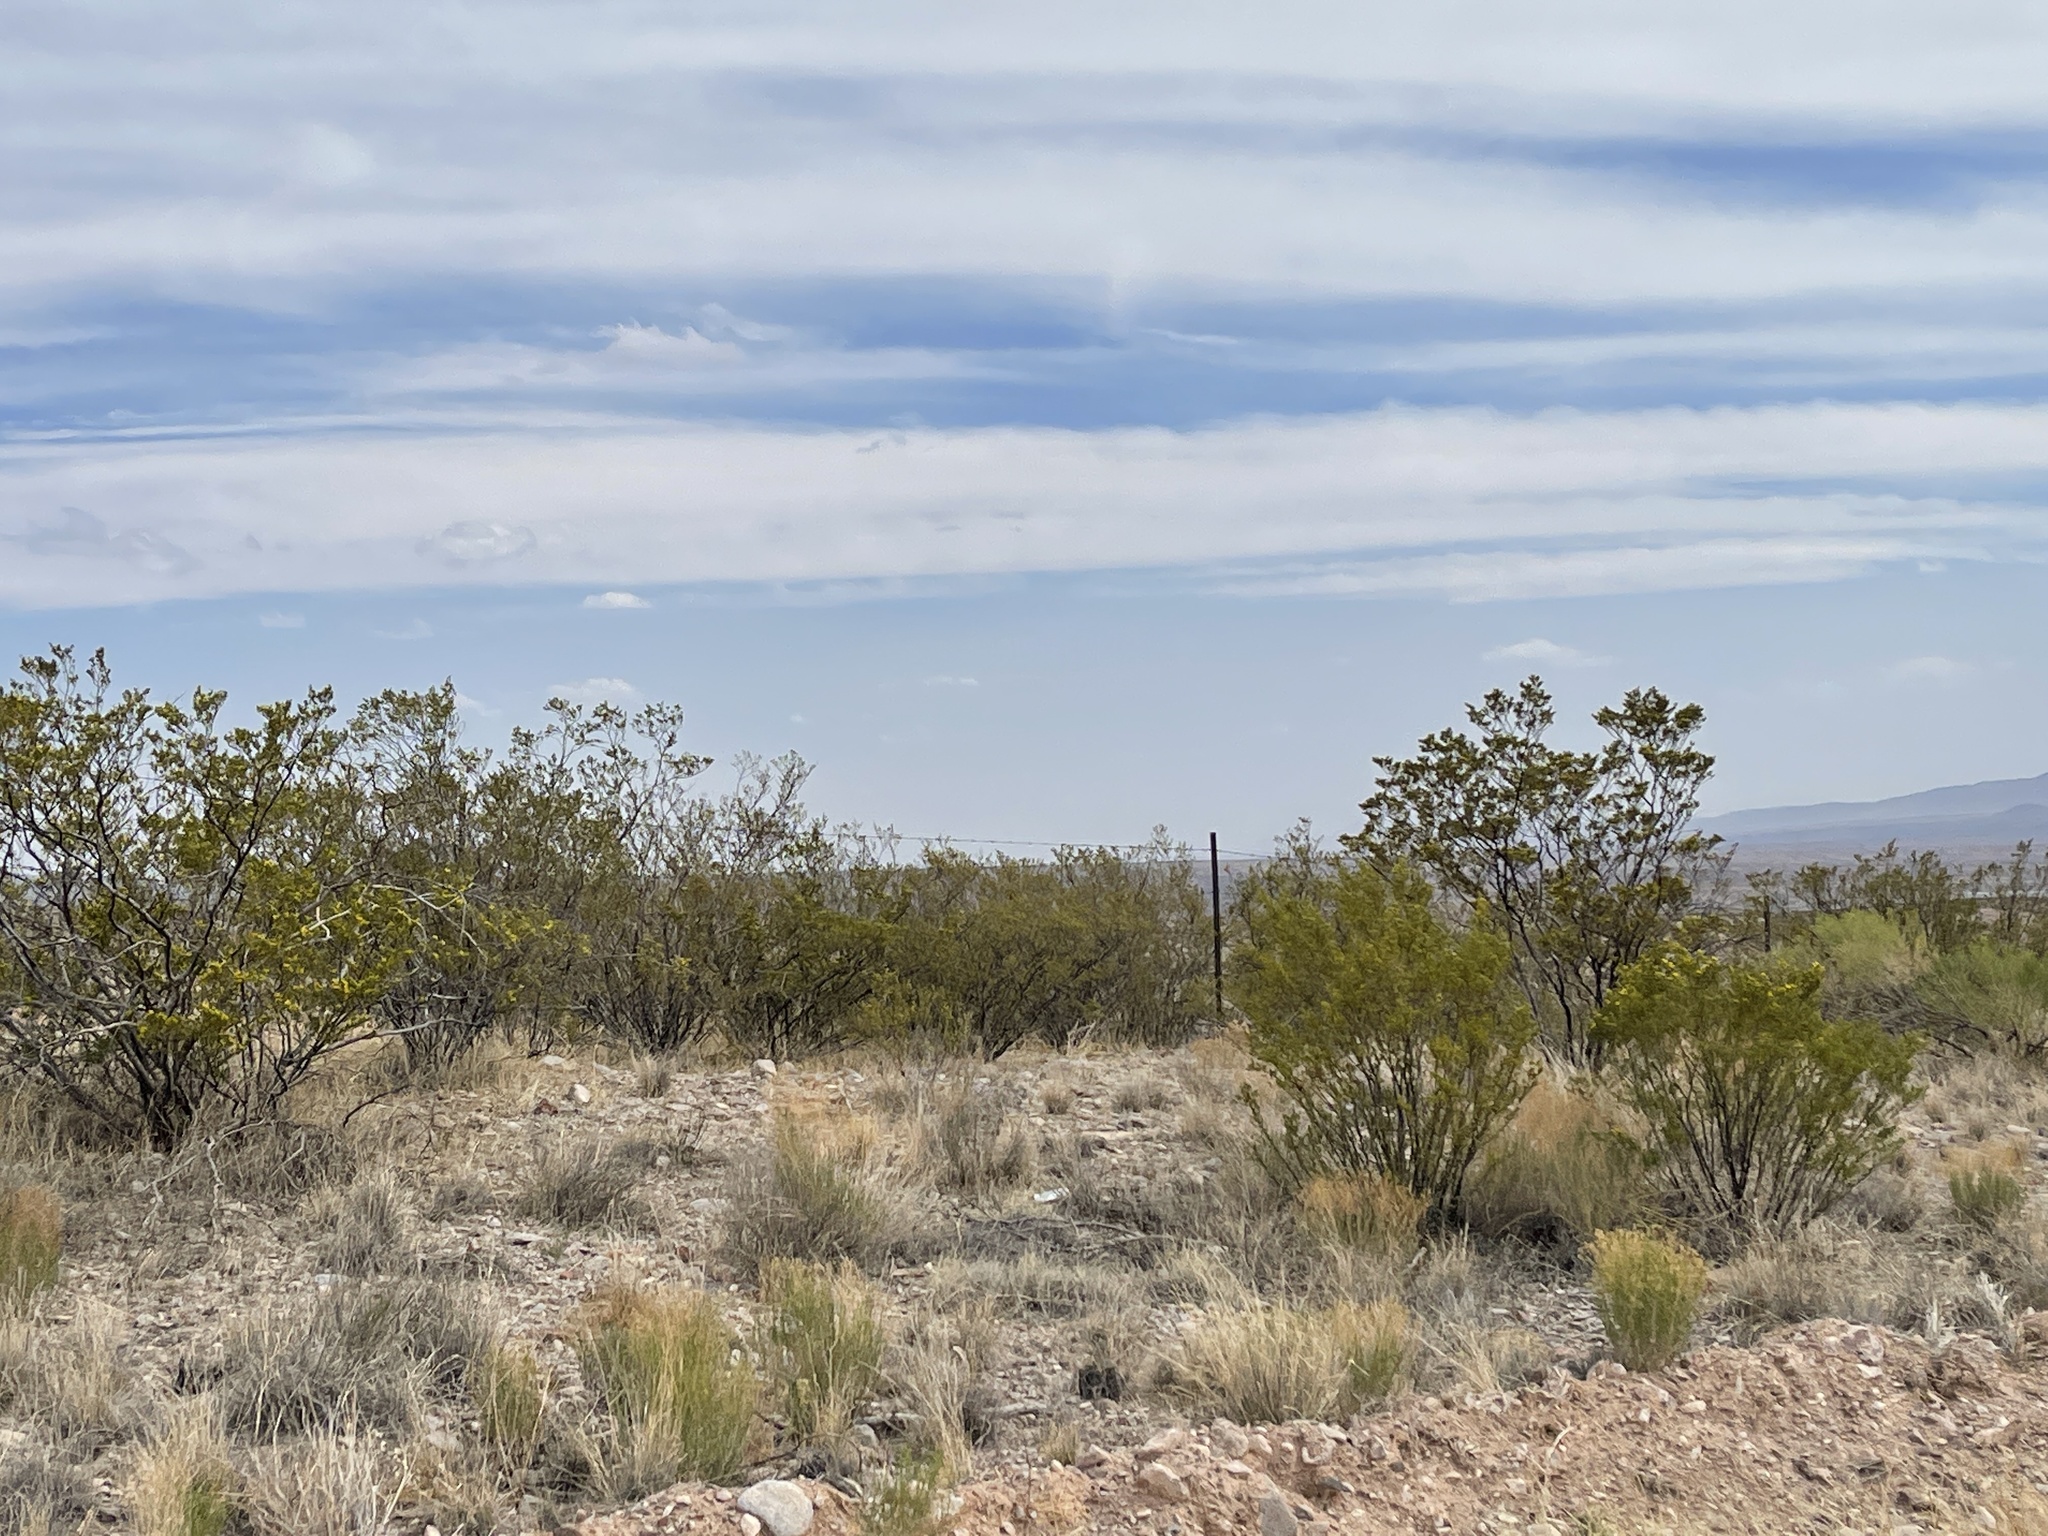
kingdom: Plantae
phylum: Tracheophyta
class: Magnoliopsida
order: Zygophyllales
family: Zygophyllaceae
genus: Larrea
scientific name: Larrea tridentata
